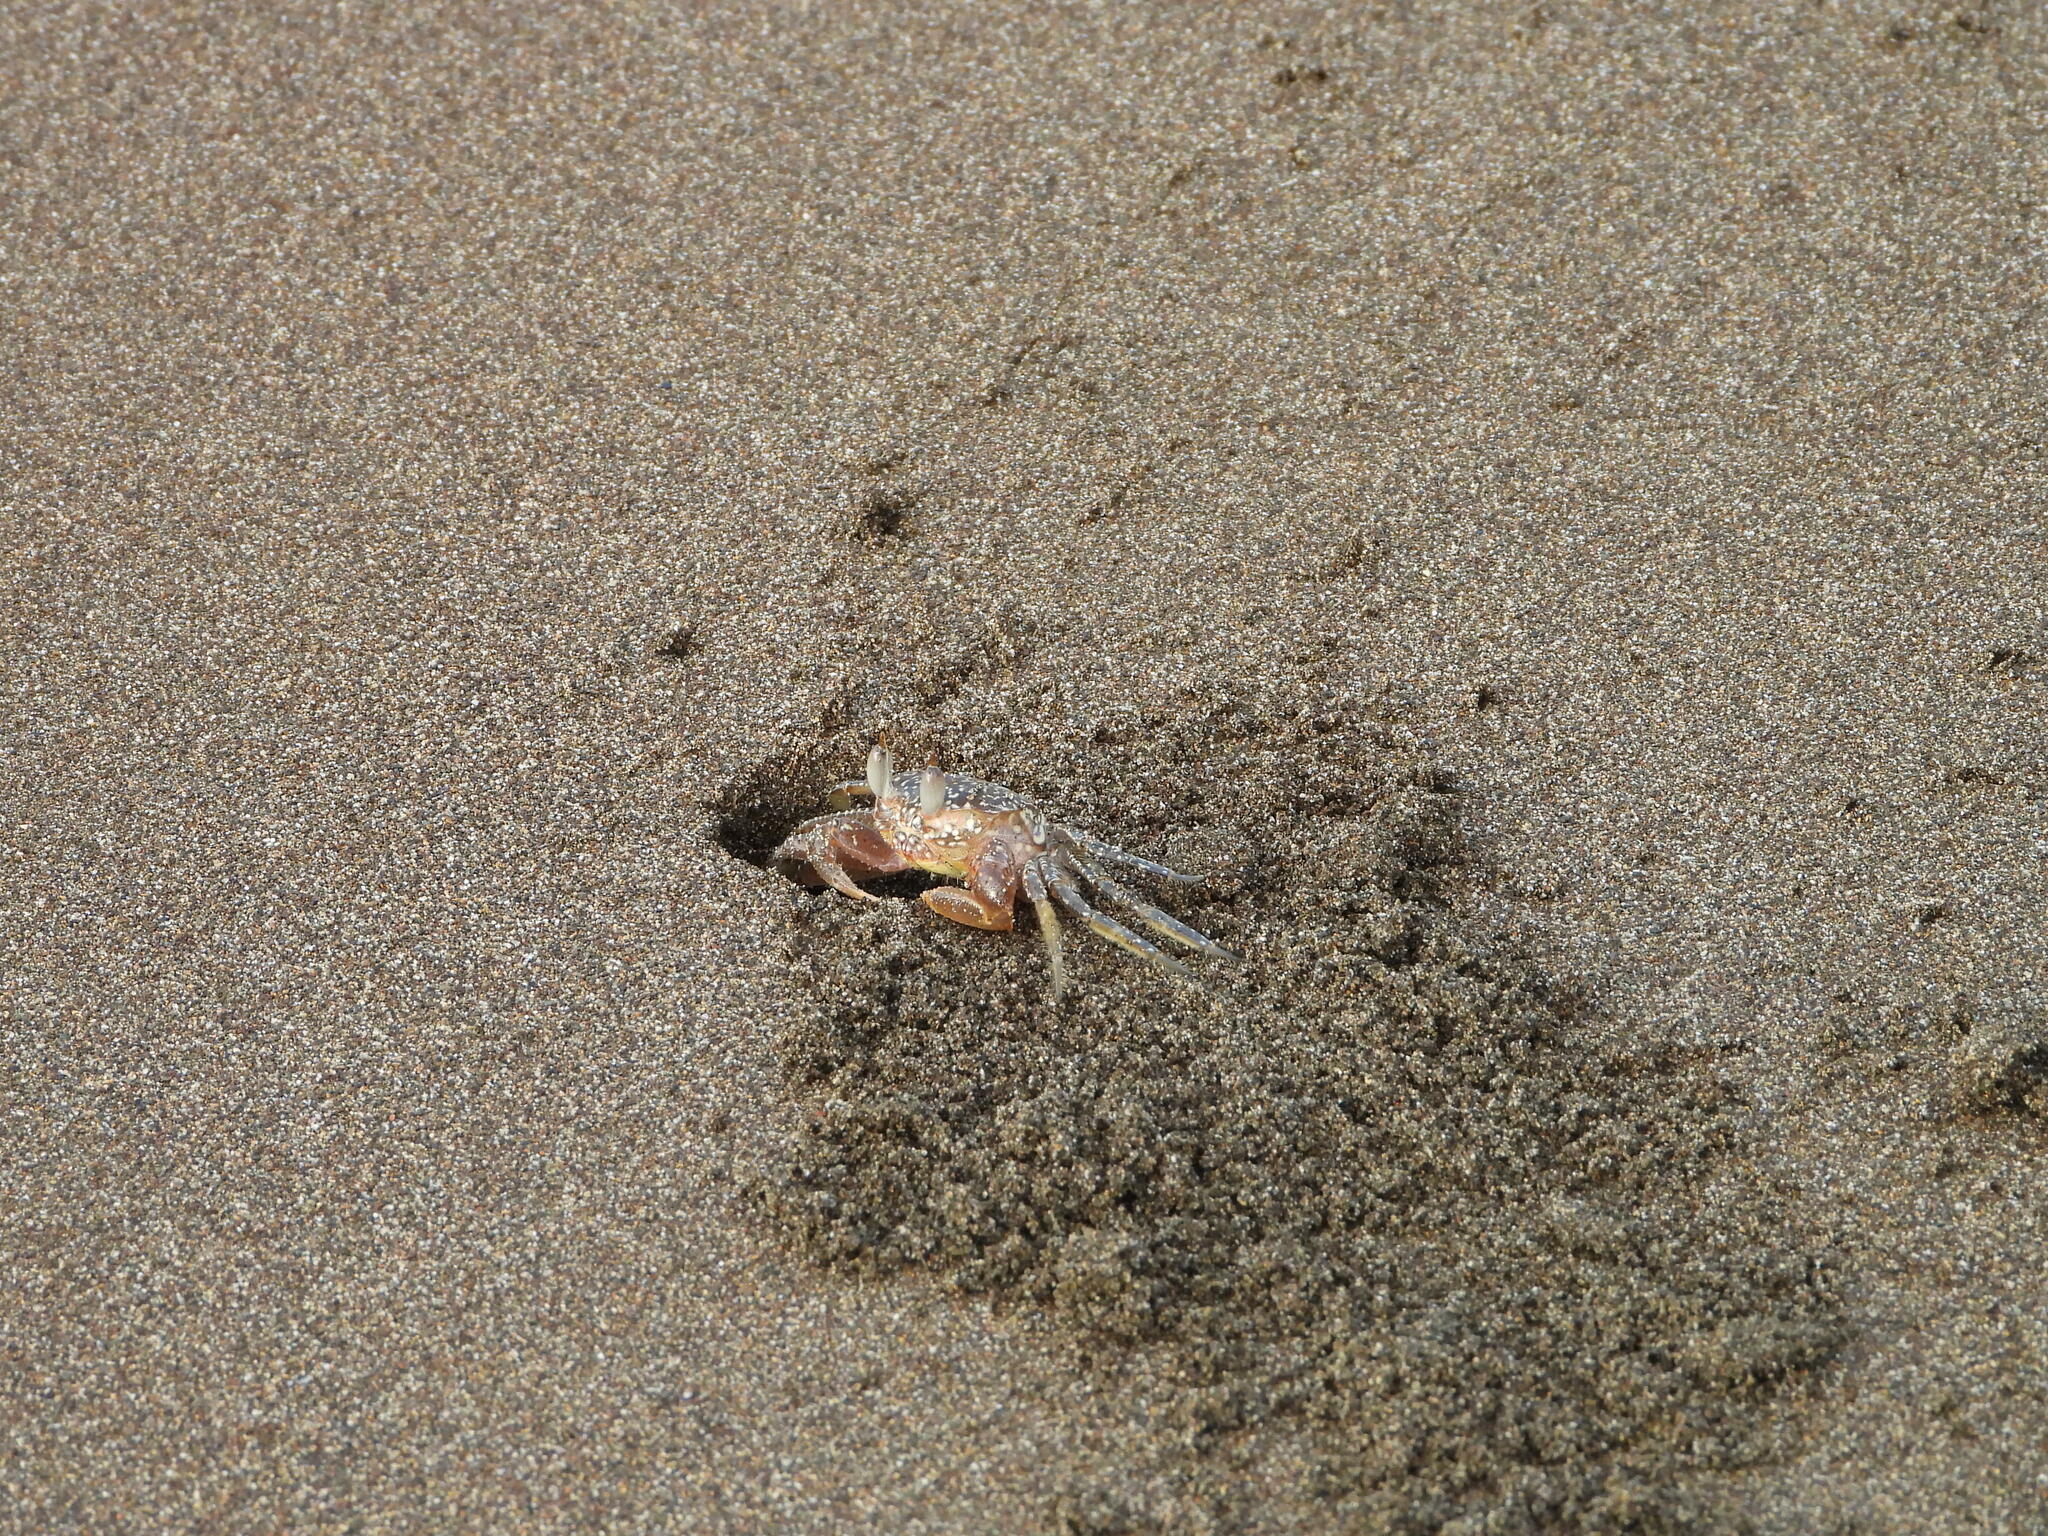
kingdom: Animalia
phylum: Arthropoda
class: Malacostraca
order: Decapoda
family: Ocypodidae
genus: Ocypode
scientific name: Ocypode gaudichaudii
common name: Pacific ghost crab
